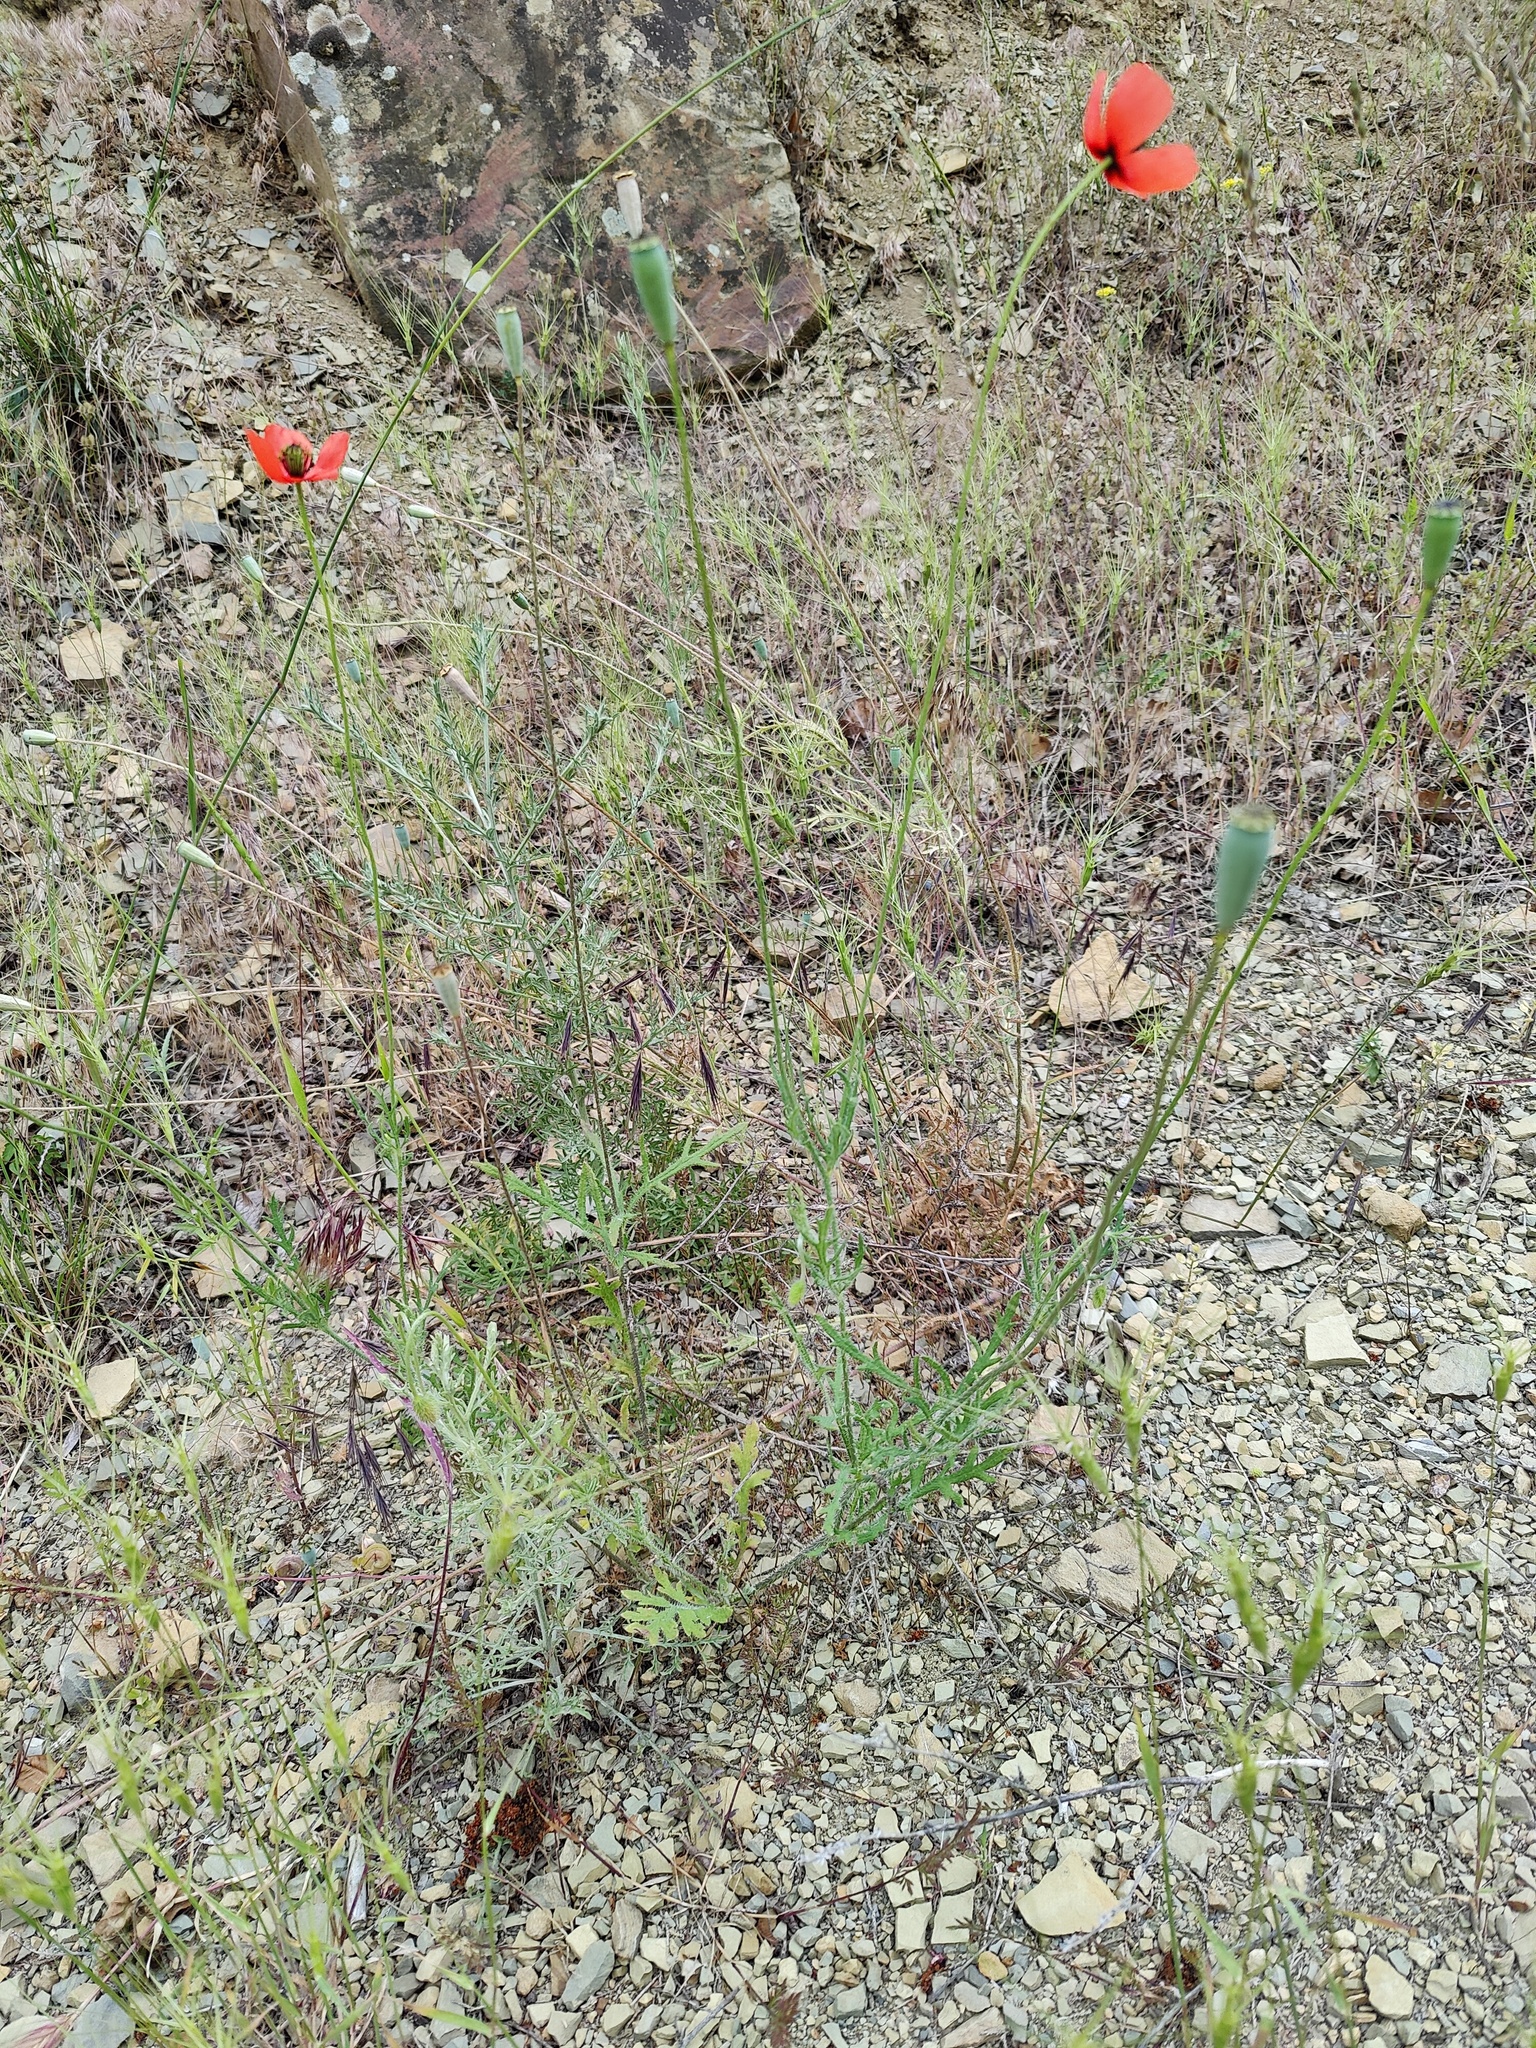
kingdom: Plantae
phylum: Tracheophyta
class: Magnoliopsida
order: Ranunculales
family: Papaveraceae
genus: Papaver
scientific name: Papaver dubium
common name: Long-headed poppy
